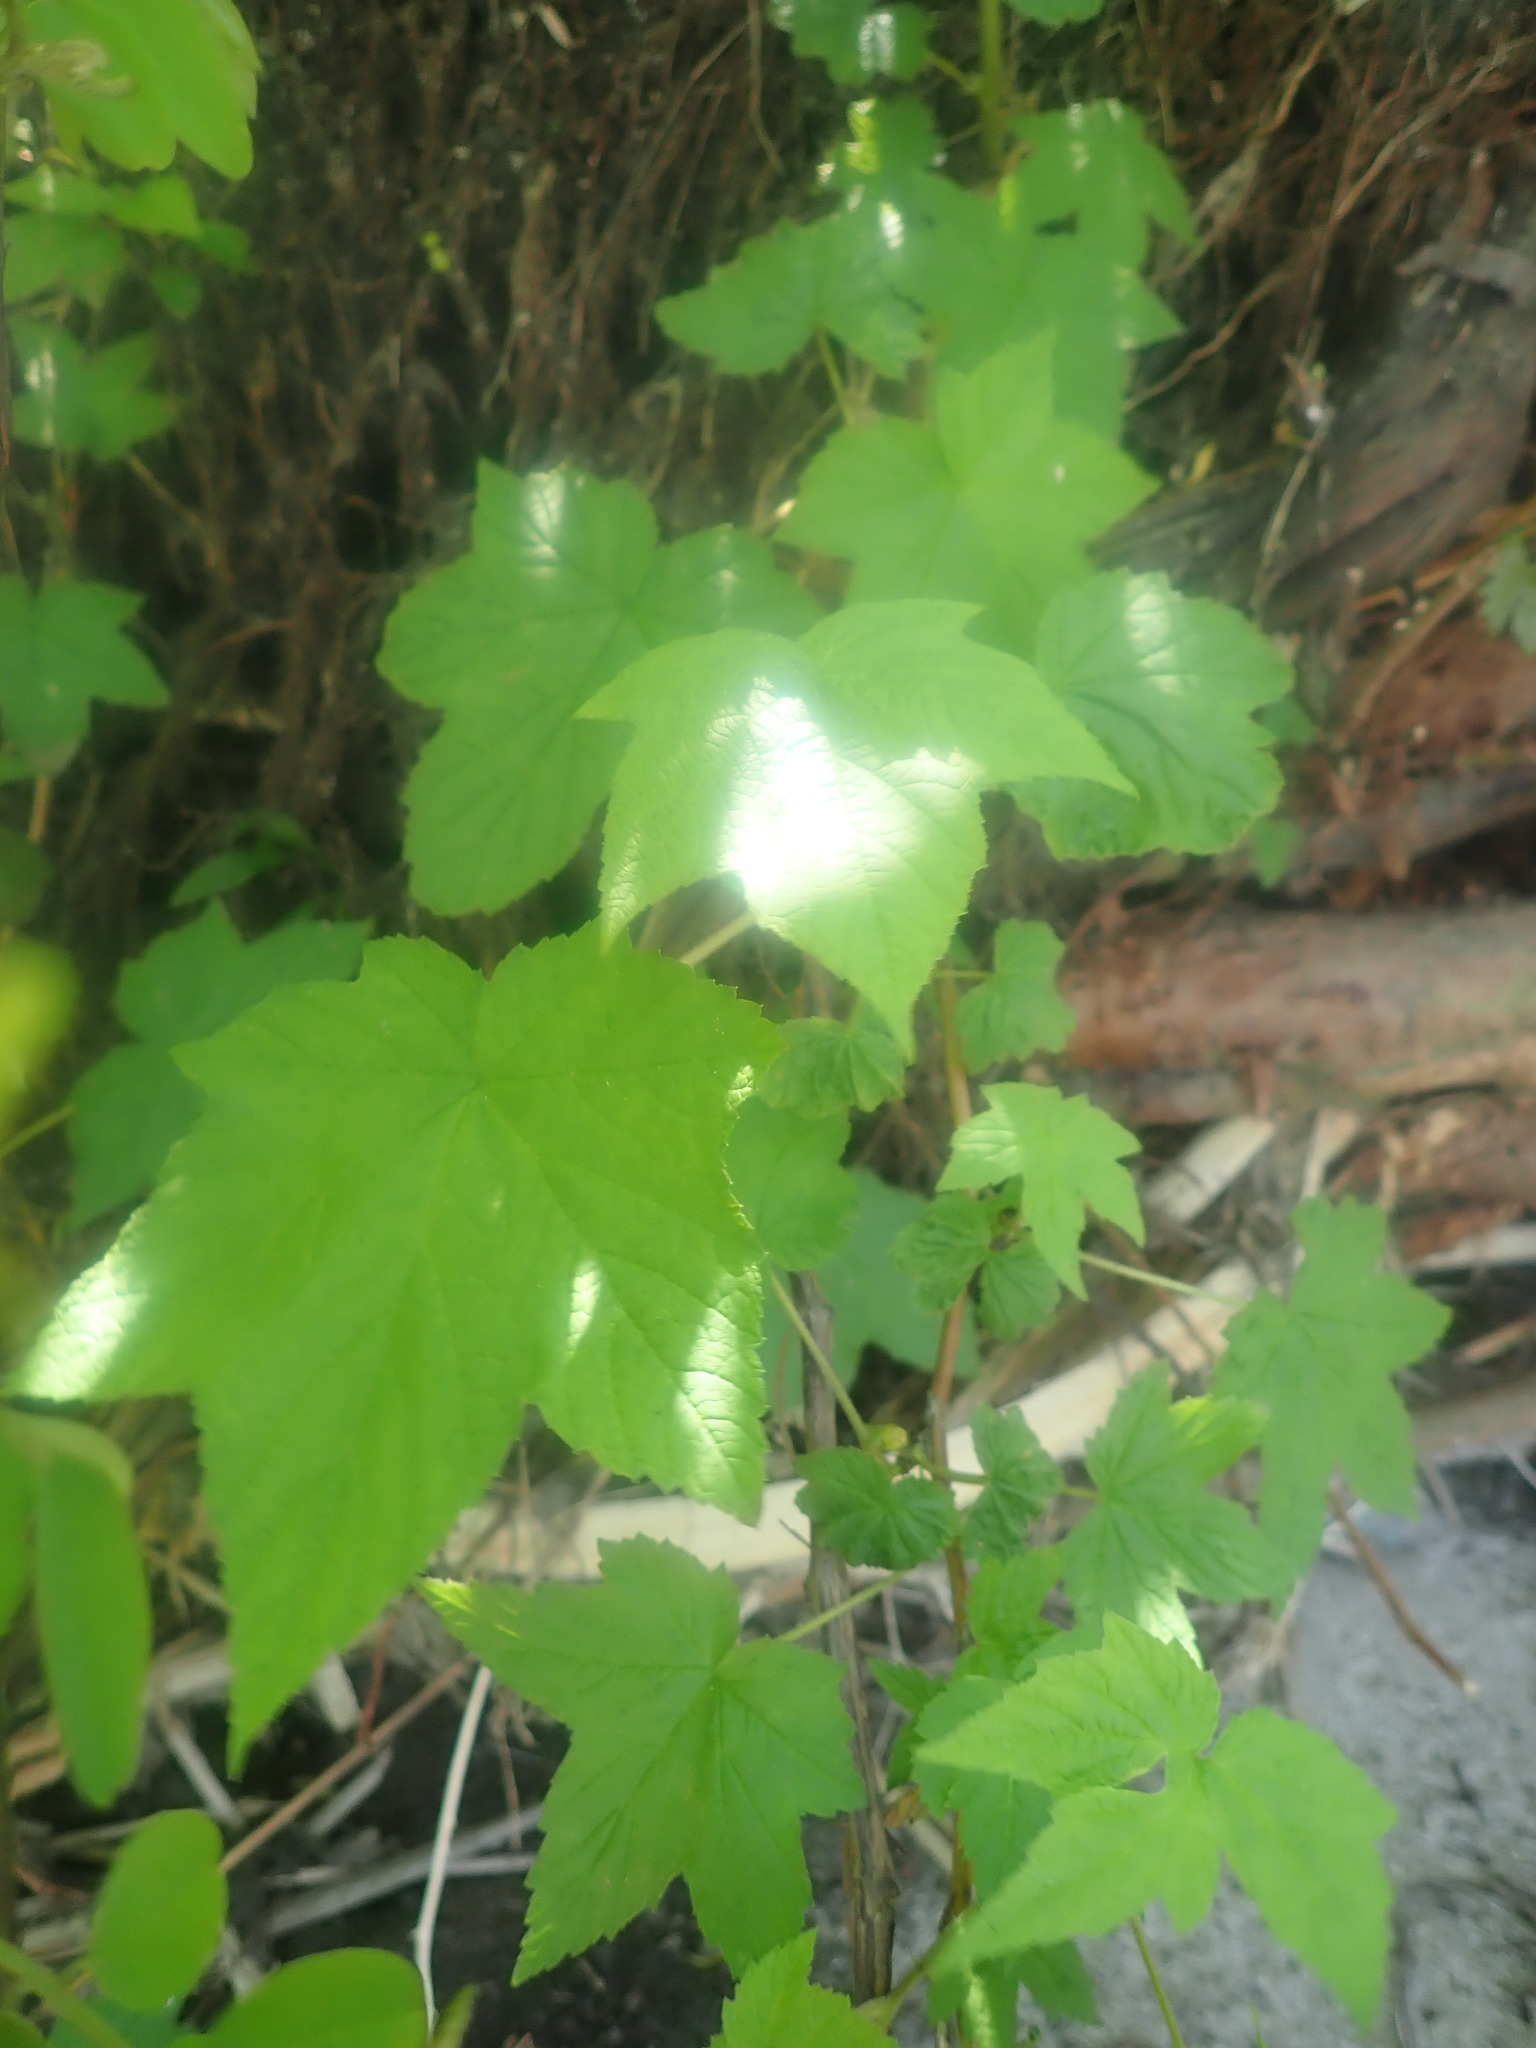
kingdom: Plantae
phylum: Tracheophyta
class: Magnoliopsida
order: Rosales
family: Rosaceae
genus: Rubus
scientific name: Rubus odoratus
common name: Purple-flowered raspberry
